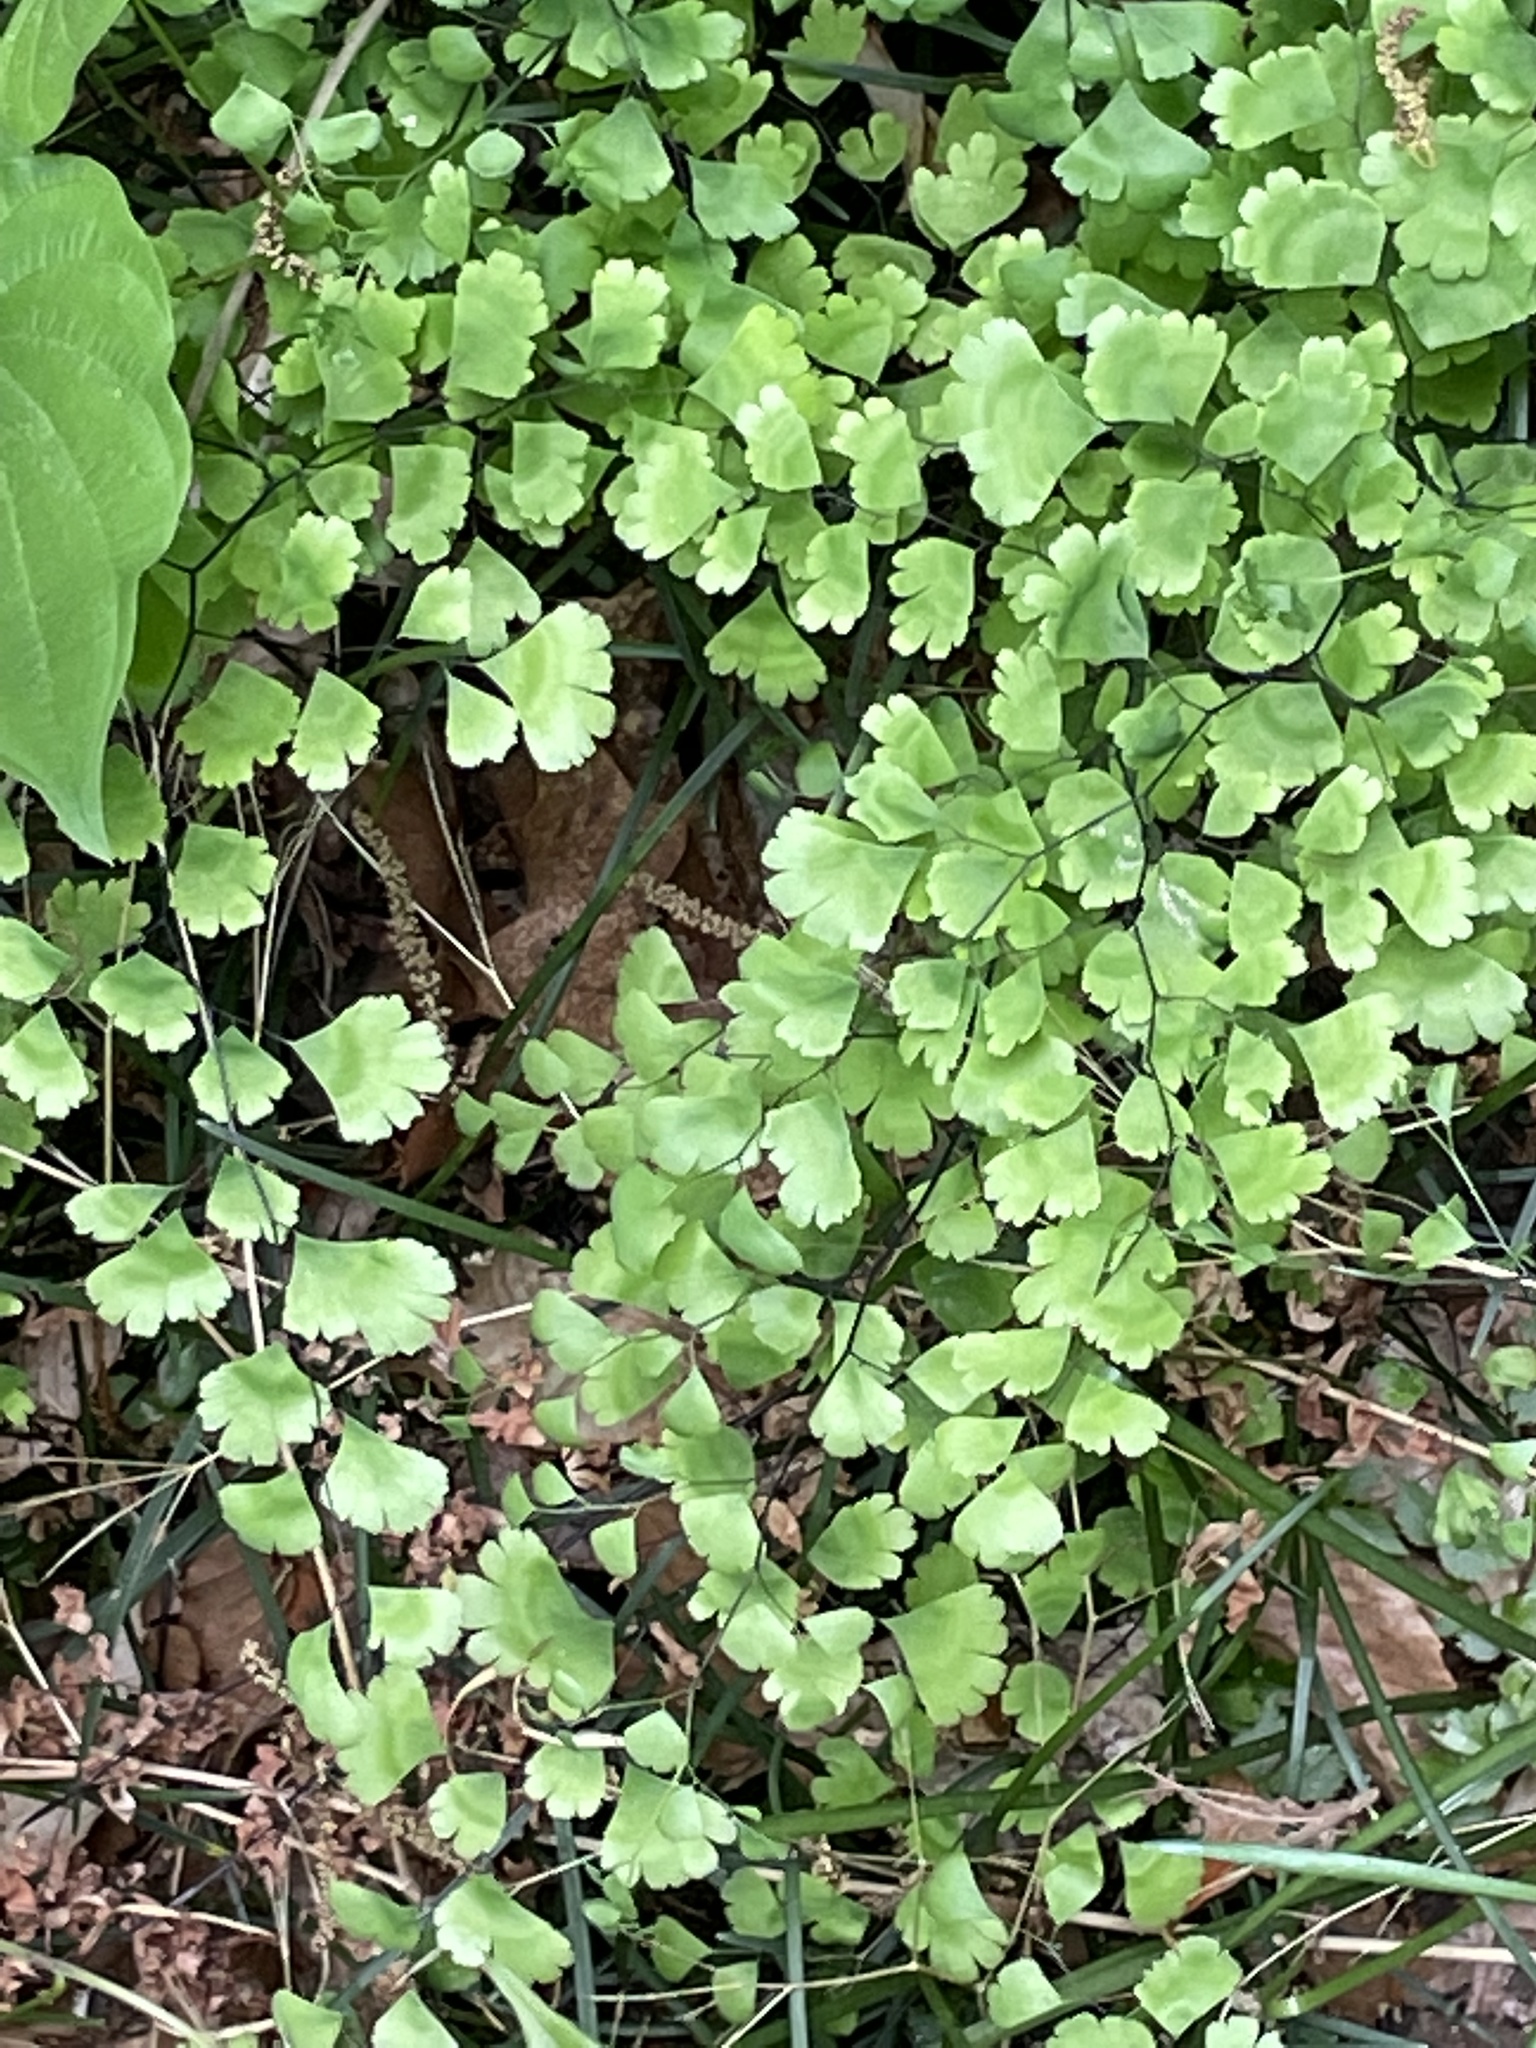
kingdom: Plantae
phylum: Tracheophyta
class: Polypodiopsida
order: Polypodiales
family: Pteridaceae
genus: Adiantum
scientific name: Adiantum capillus-veneris
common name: Maidenhair fern
